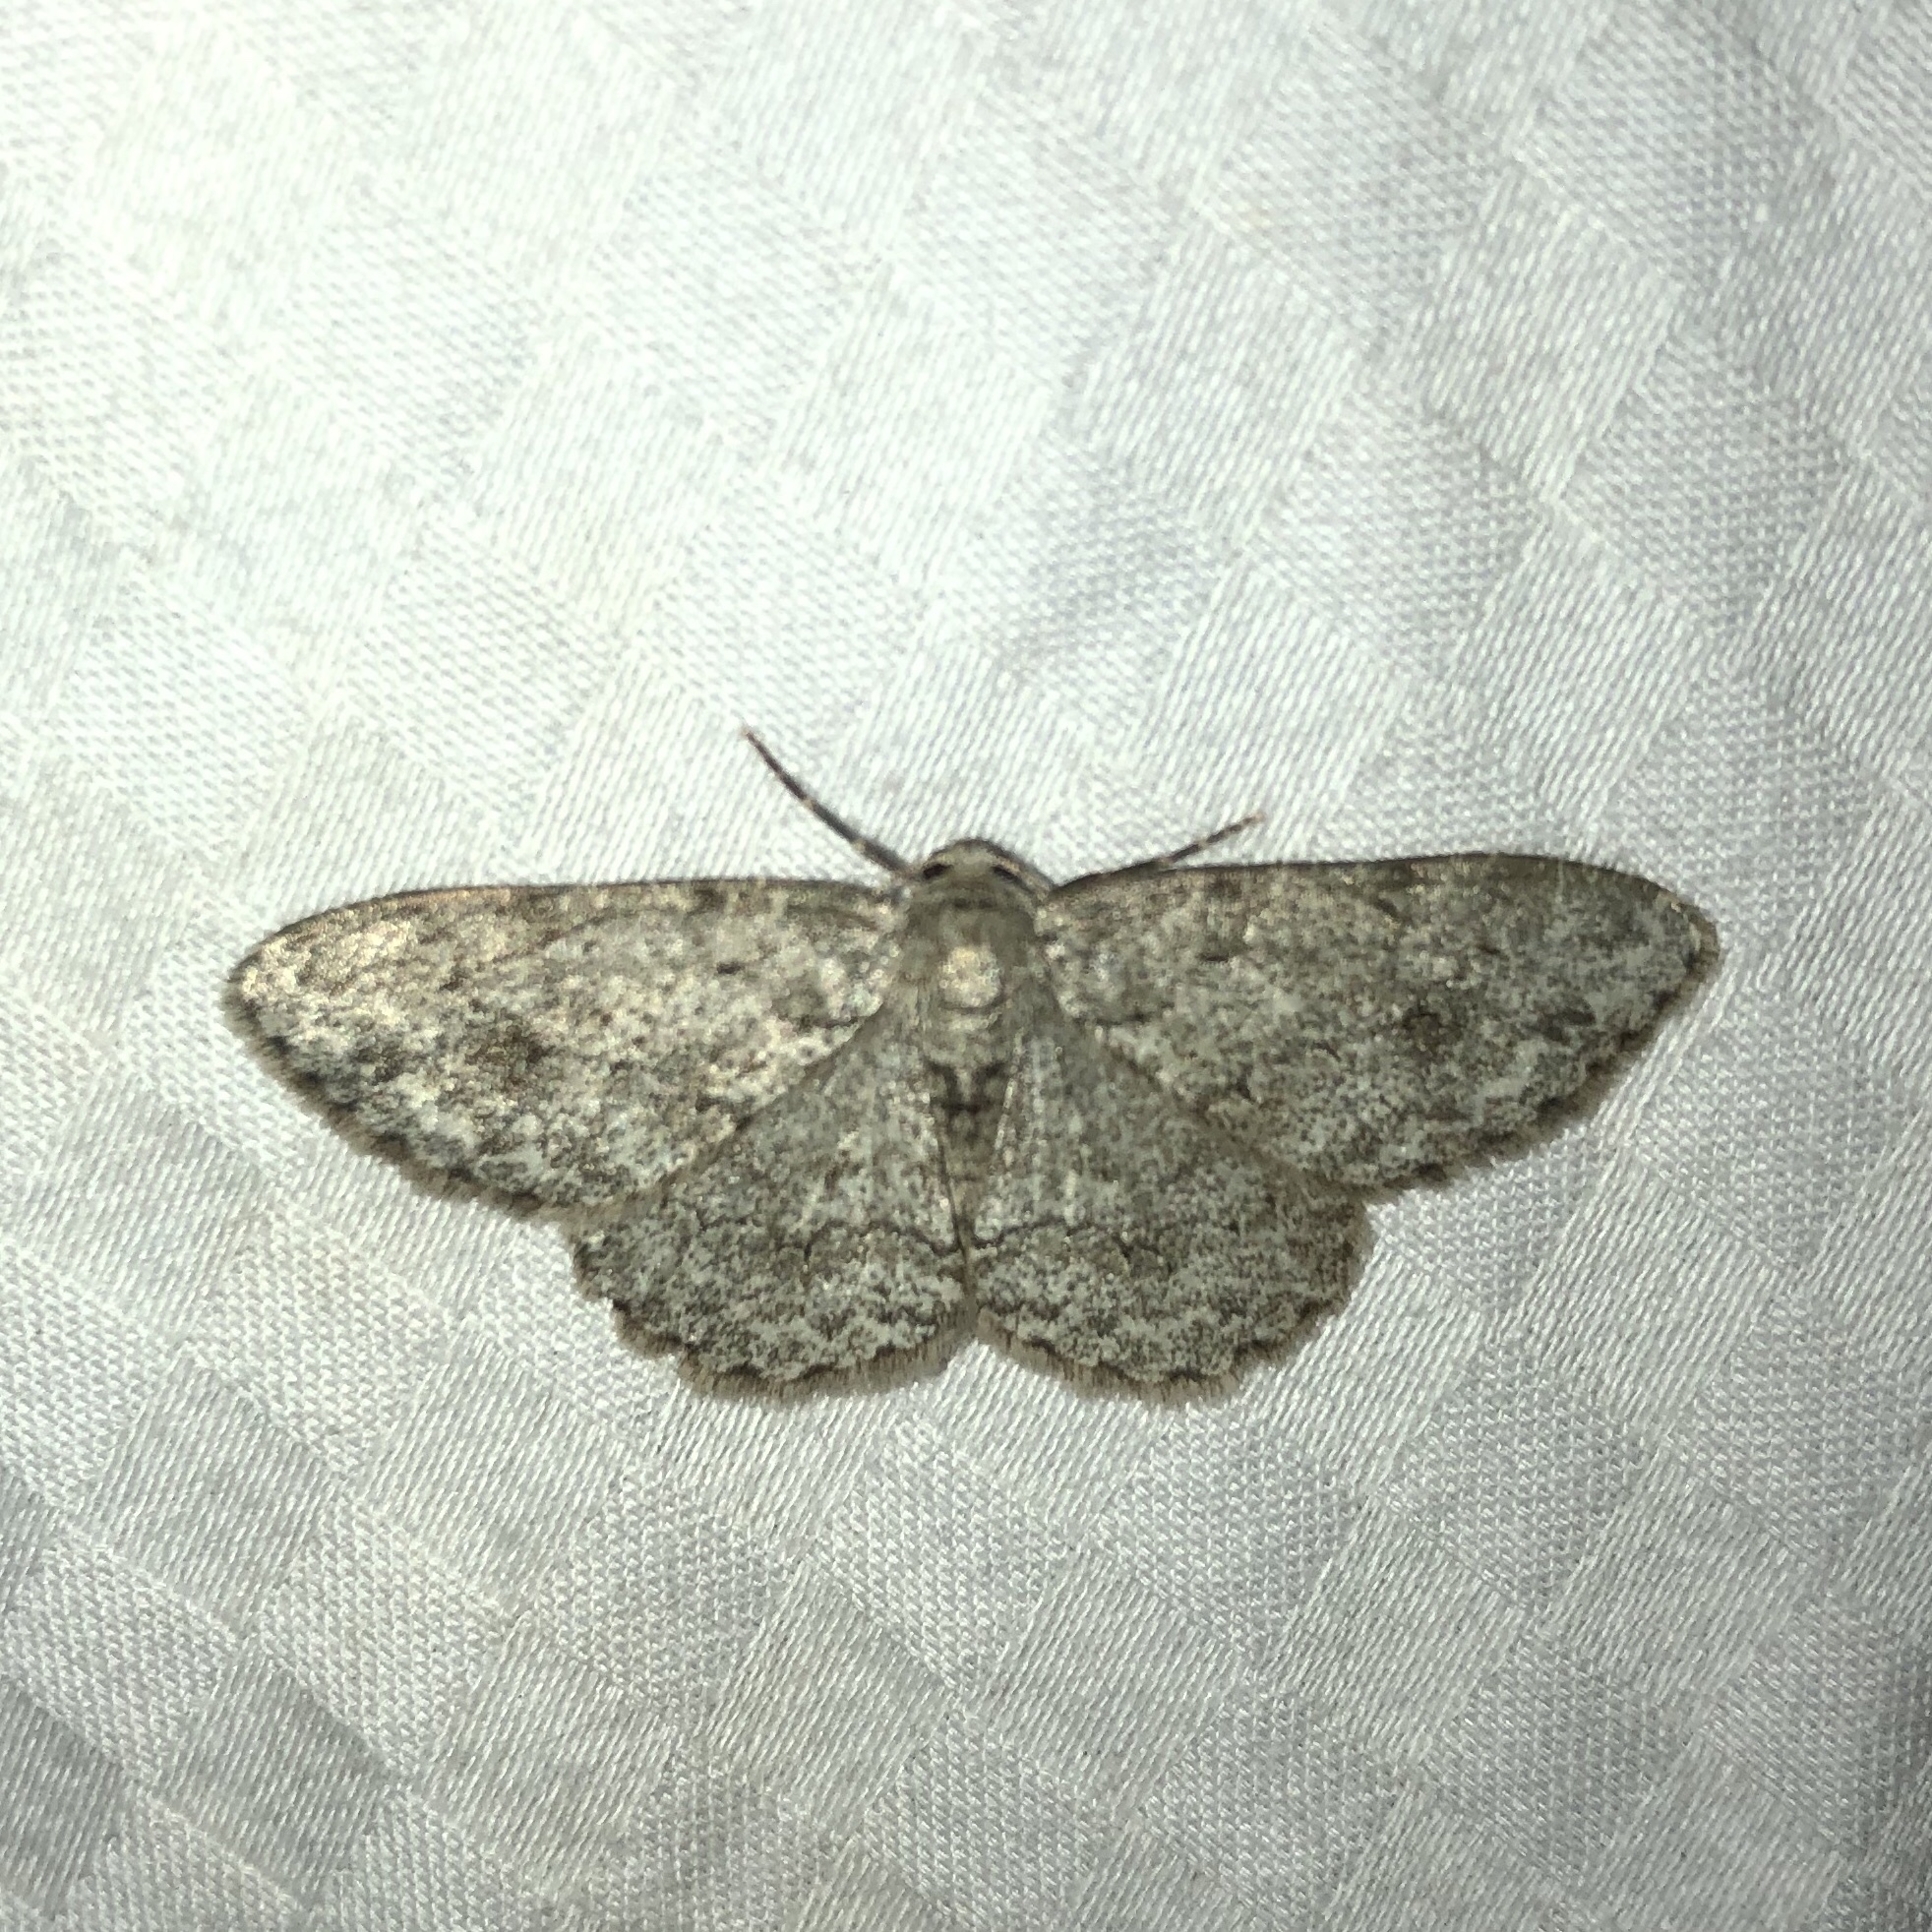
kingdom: Animalia
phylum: Arthropoda
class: Insecta
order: Lepidoptera
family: Geometridae
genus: Ectropis
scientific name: Ectropis crepuscularia
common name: Engrailed
